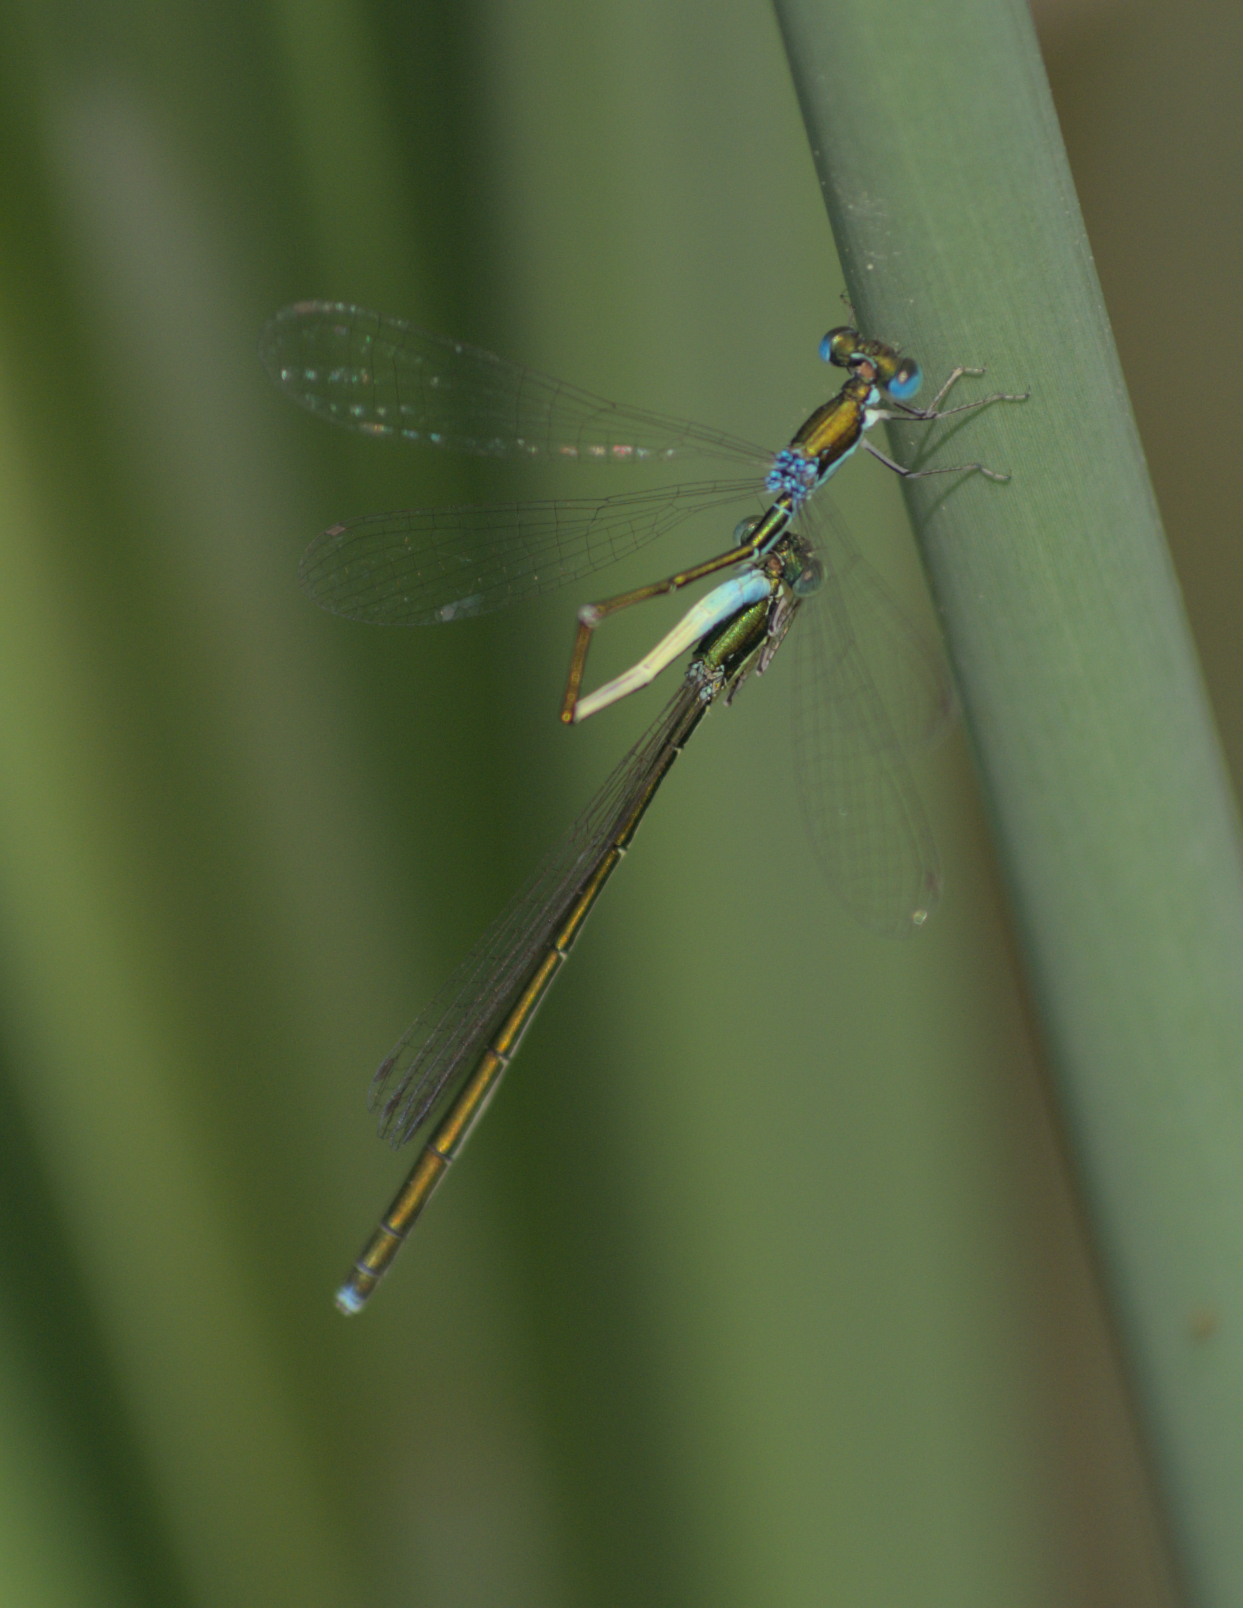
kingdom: Animalia
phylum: Arthropoda
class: Insecta
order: Odonata
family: Coenagrionidae
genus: Nehalennia
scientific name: Nehalennia irene
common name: Sedge sprite
